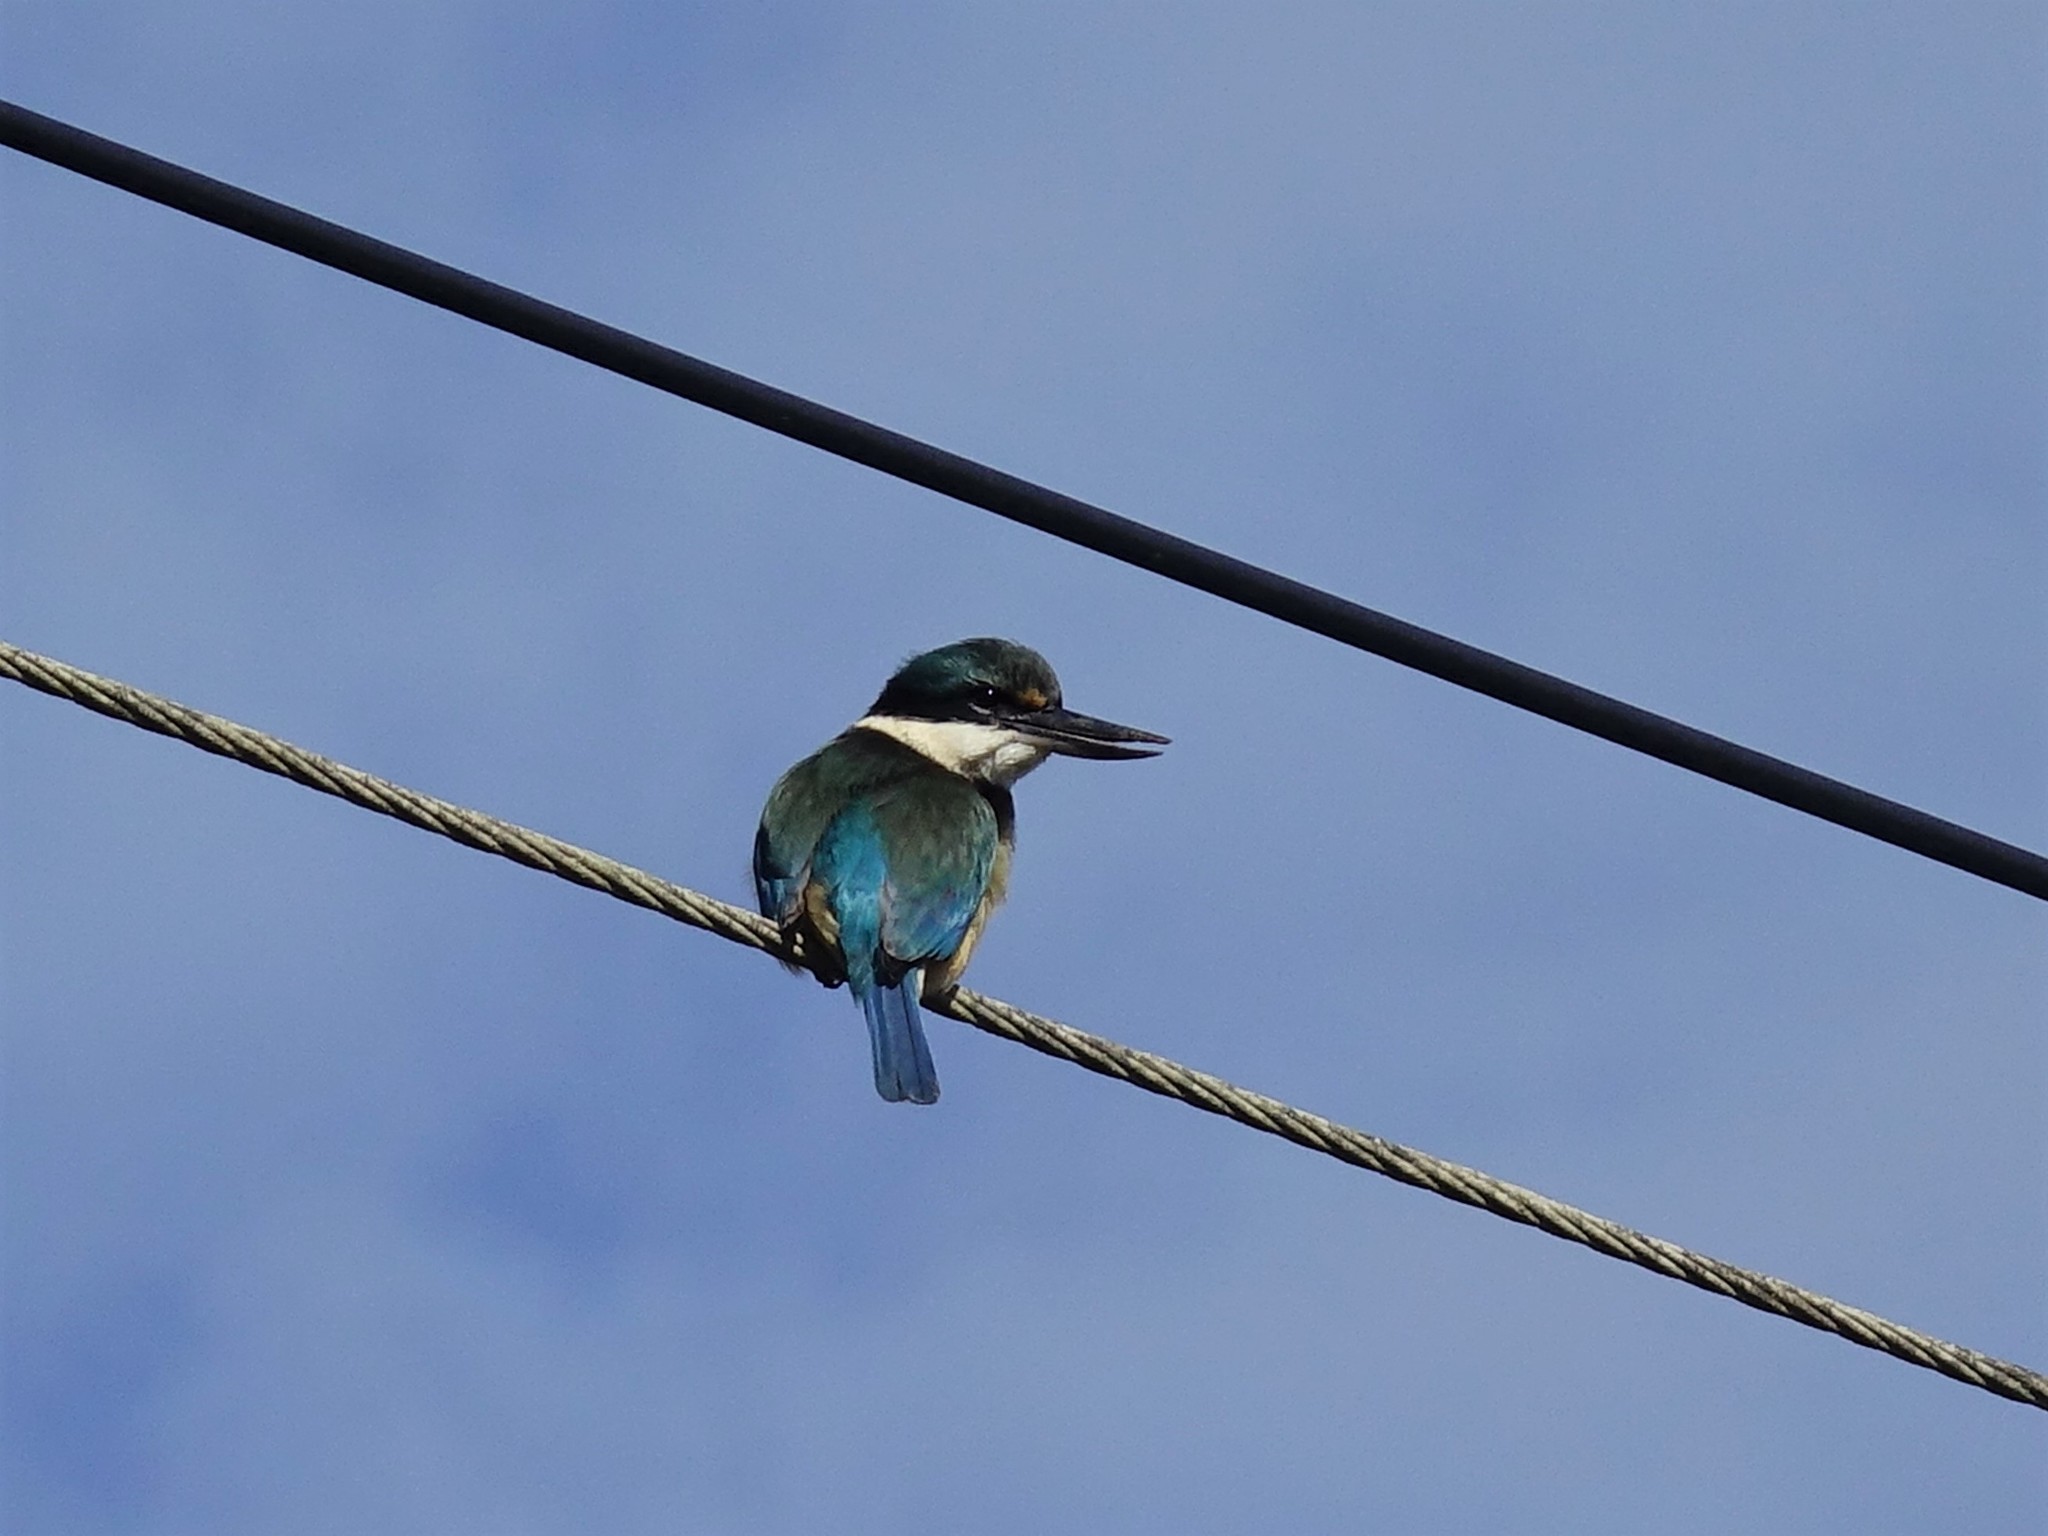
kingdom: Animalia
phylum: Chordata
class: Aves
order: Coraciiformes
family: Alcedinidae
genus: Todiramphus
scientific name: Todiramphus sanctus
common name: Sacred kingfisher
